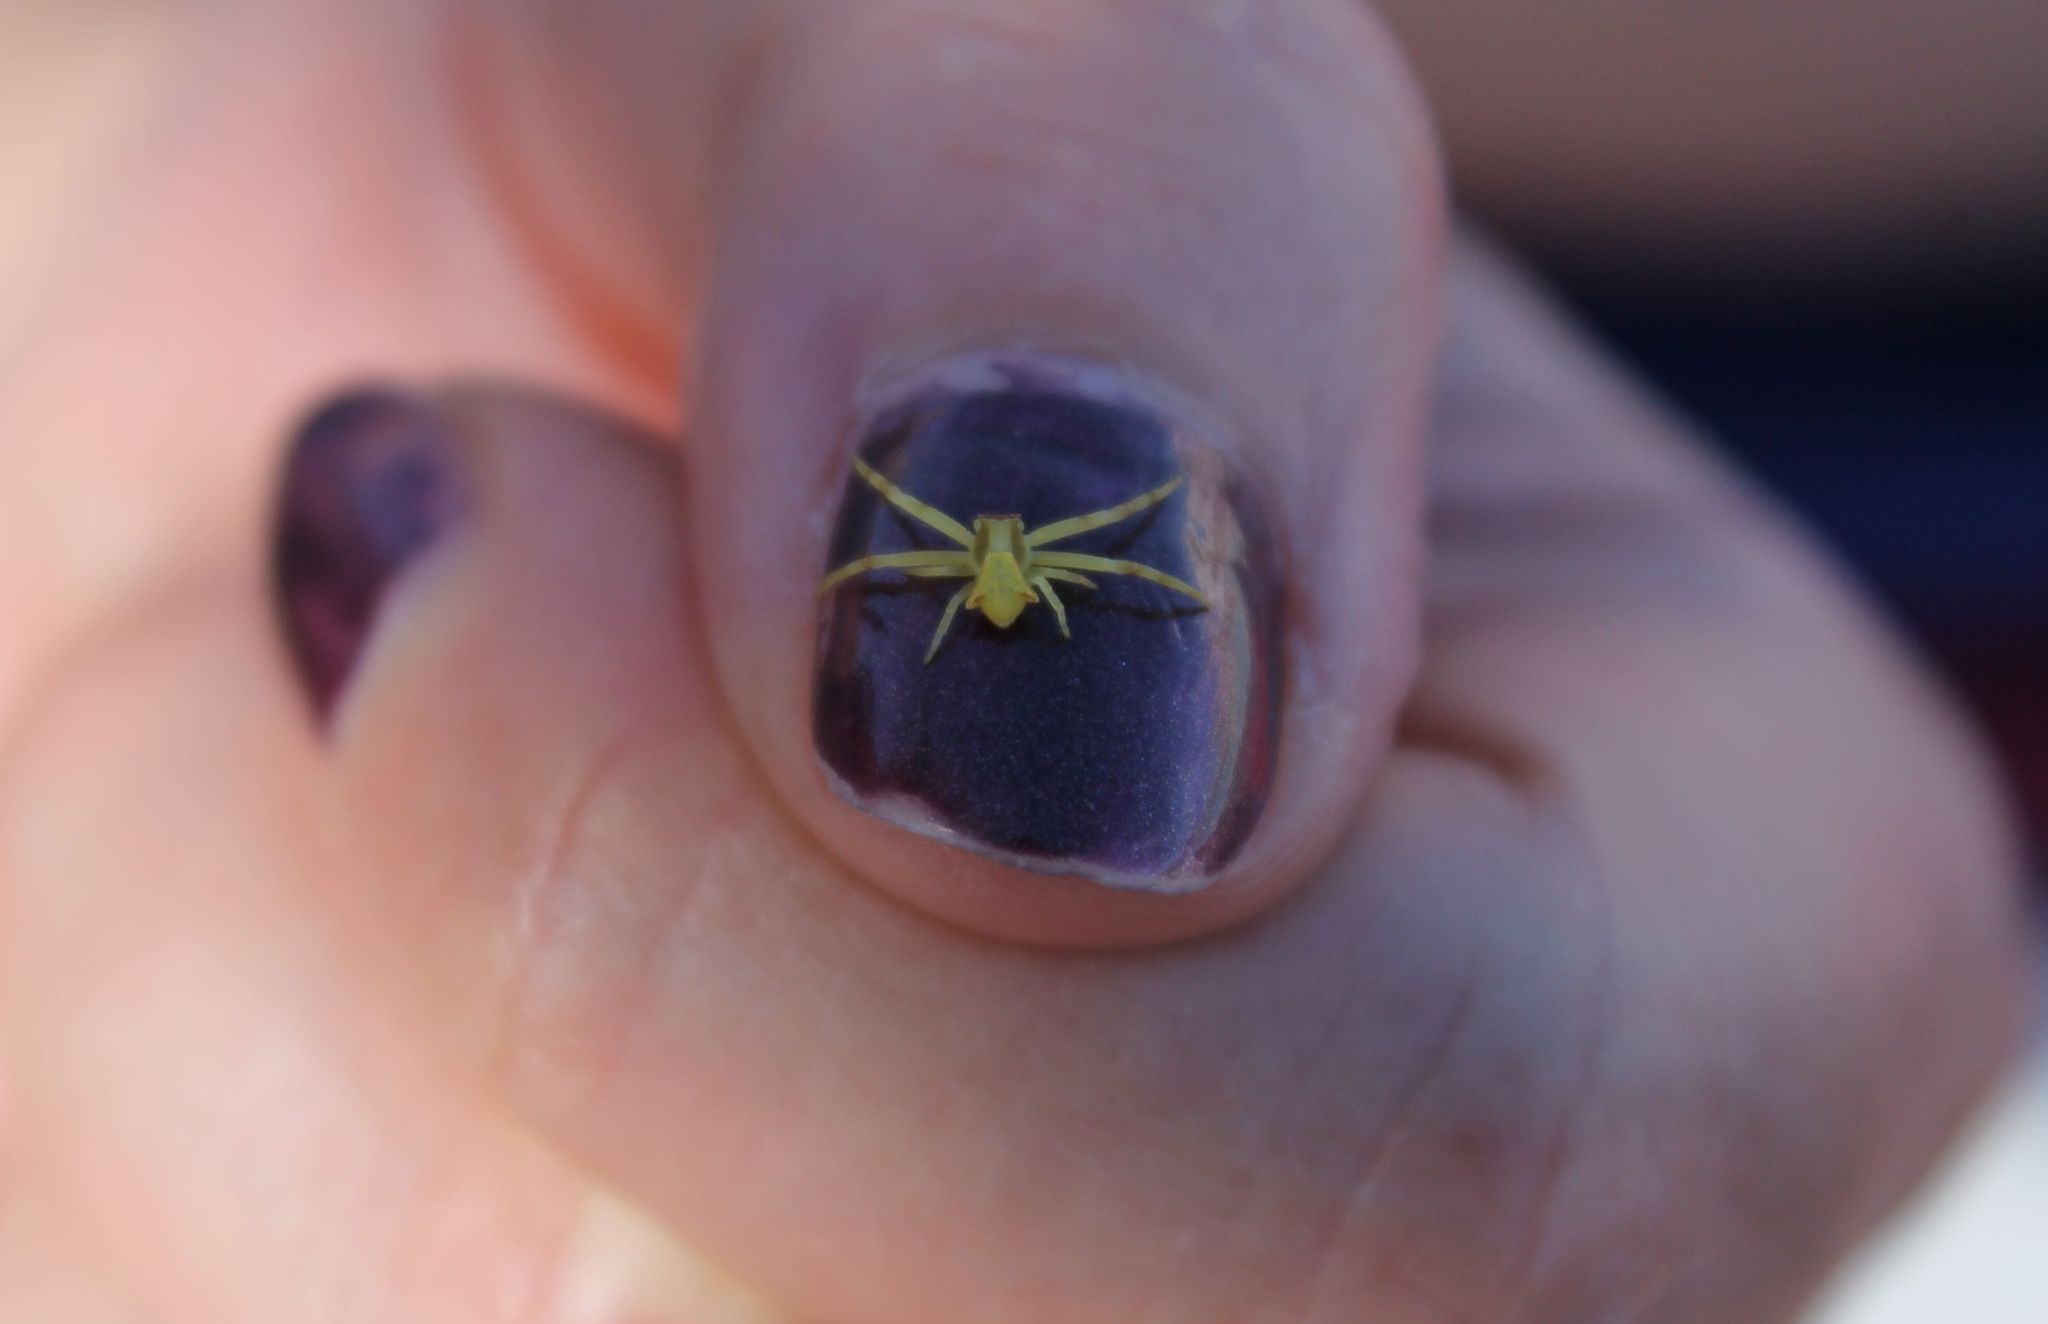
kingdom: Animalia
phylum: Arthropoda
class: Arachnida
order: Araneae
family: Thomisidae
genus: Thomisus
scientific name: Thomisus onustus
